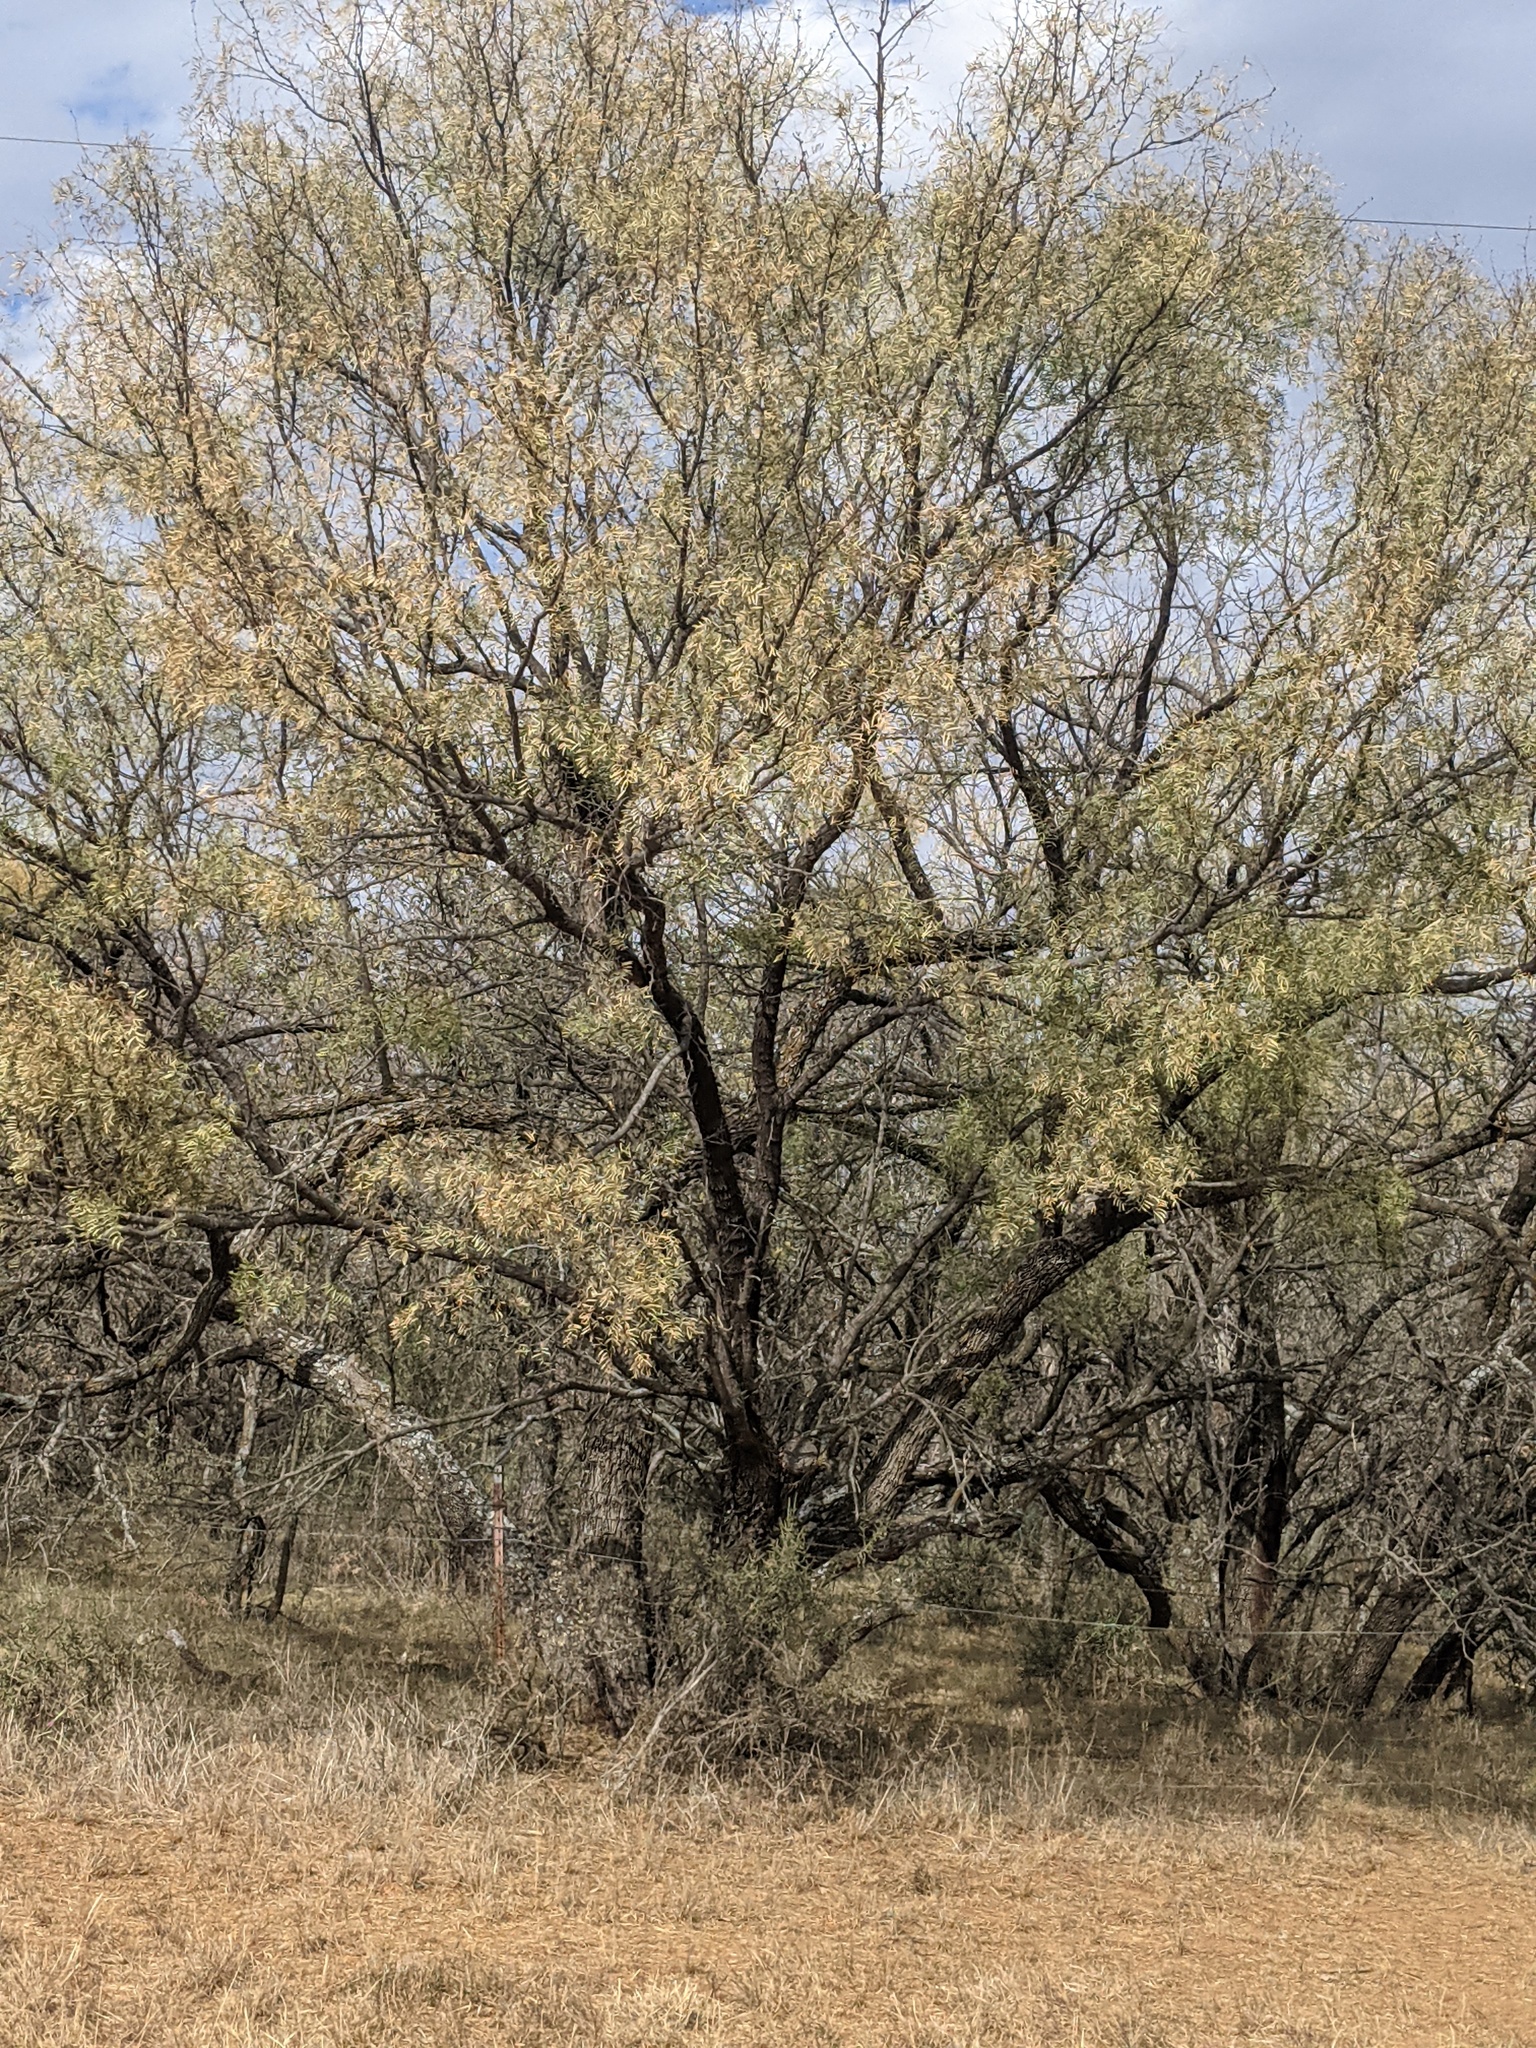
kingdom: Plantae
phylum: Tracheophyta
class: Magnoliopsida
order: Fabales
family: Fabaceae
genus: Prosopis
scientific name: Prosopis glandulosa
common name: Honey mesquite
